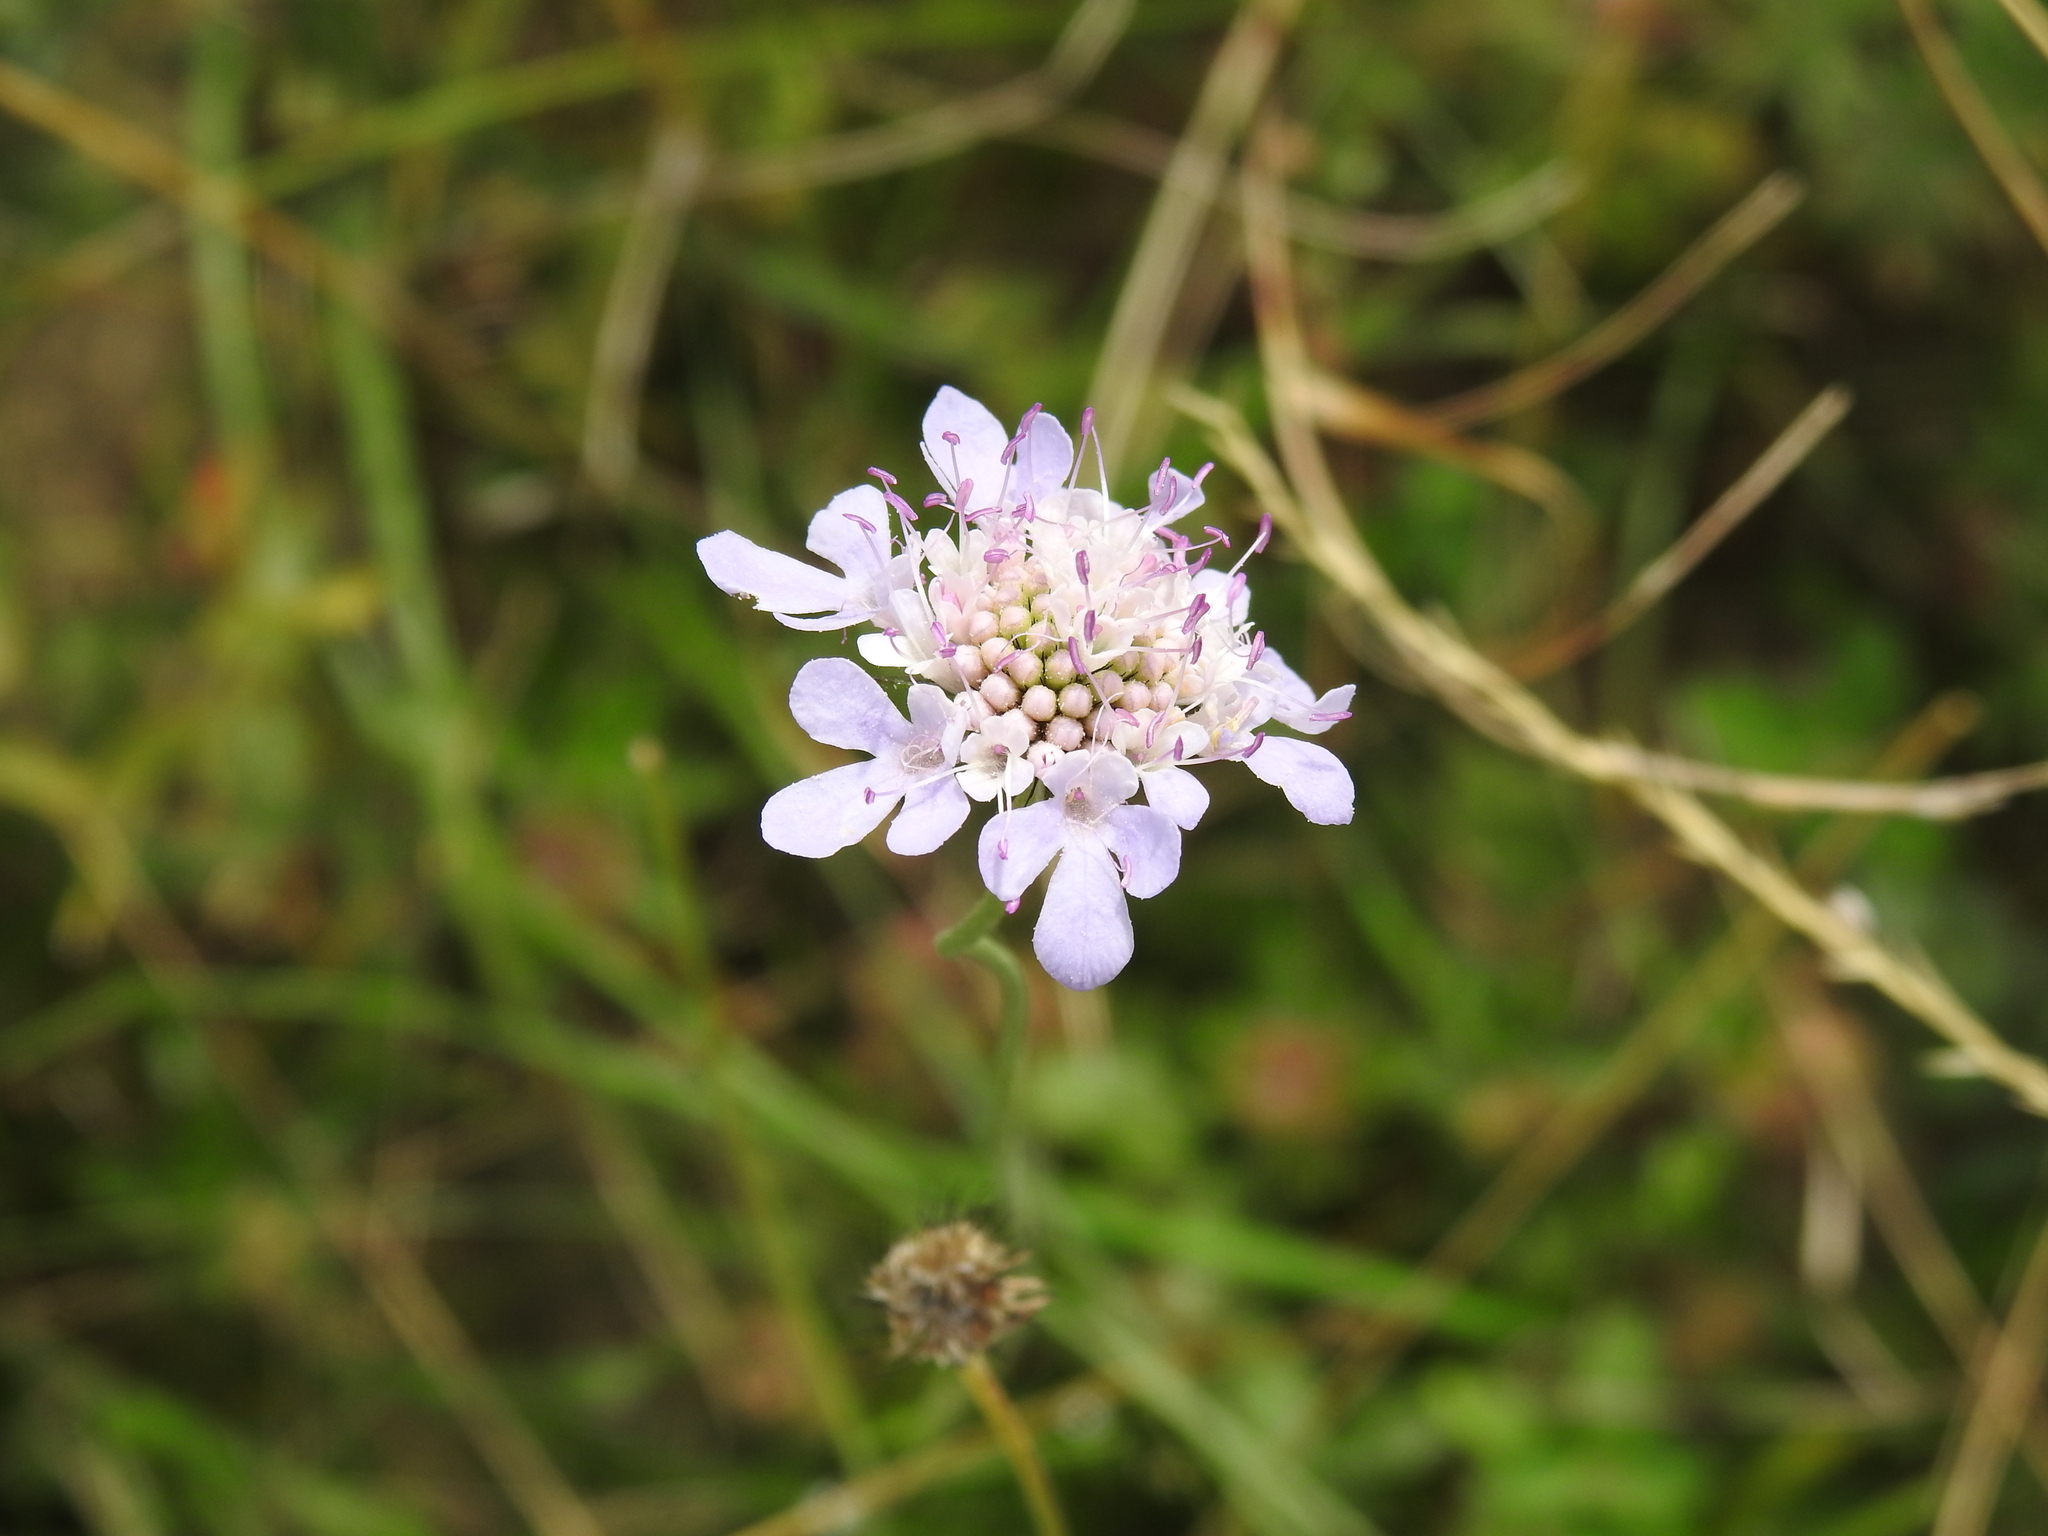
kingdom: Plantae
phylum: Tracheophyta
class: Magnoliopsida
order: Dipsacales
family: Caprifoliaceae
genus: Scabiosa
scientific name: Scabiosa columbaria
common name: Small scabious
